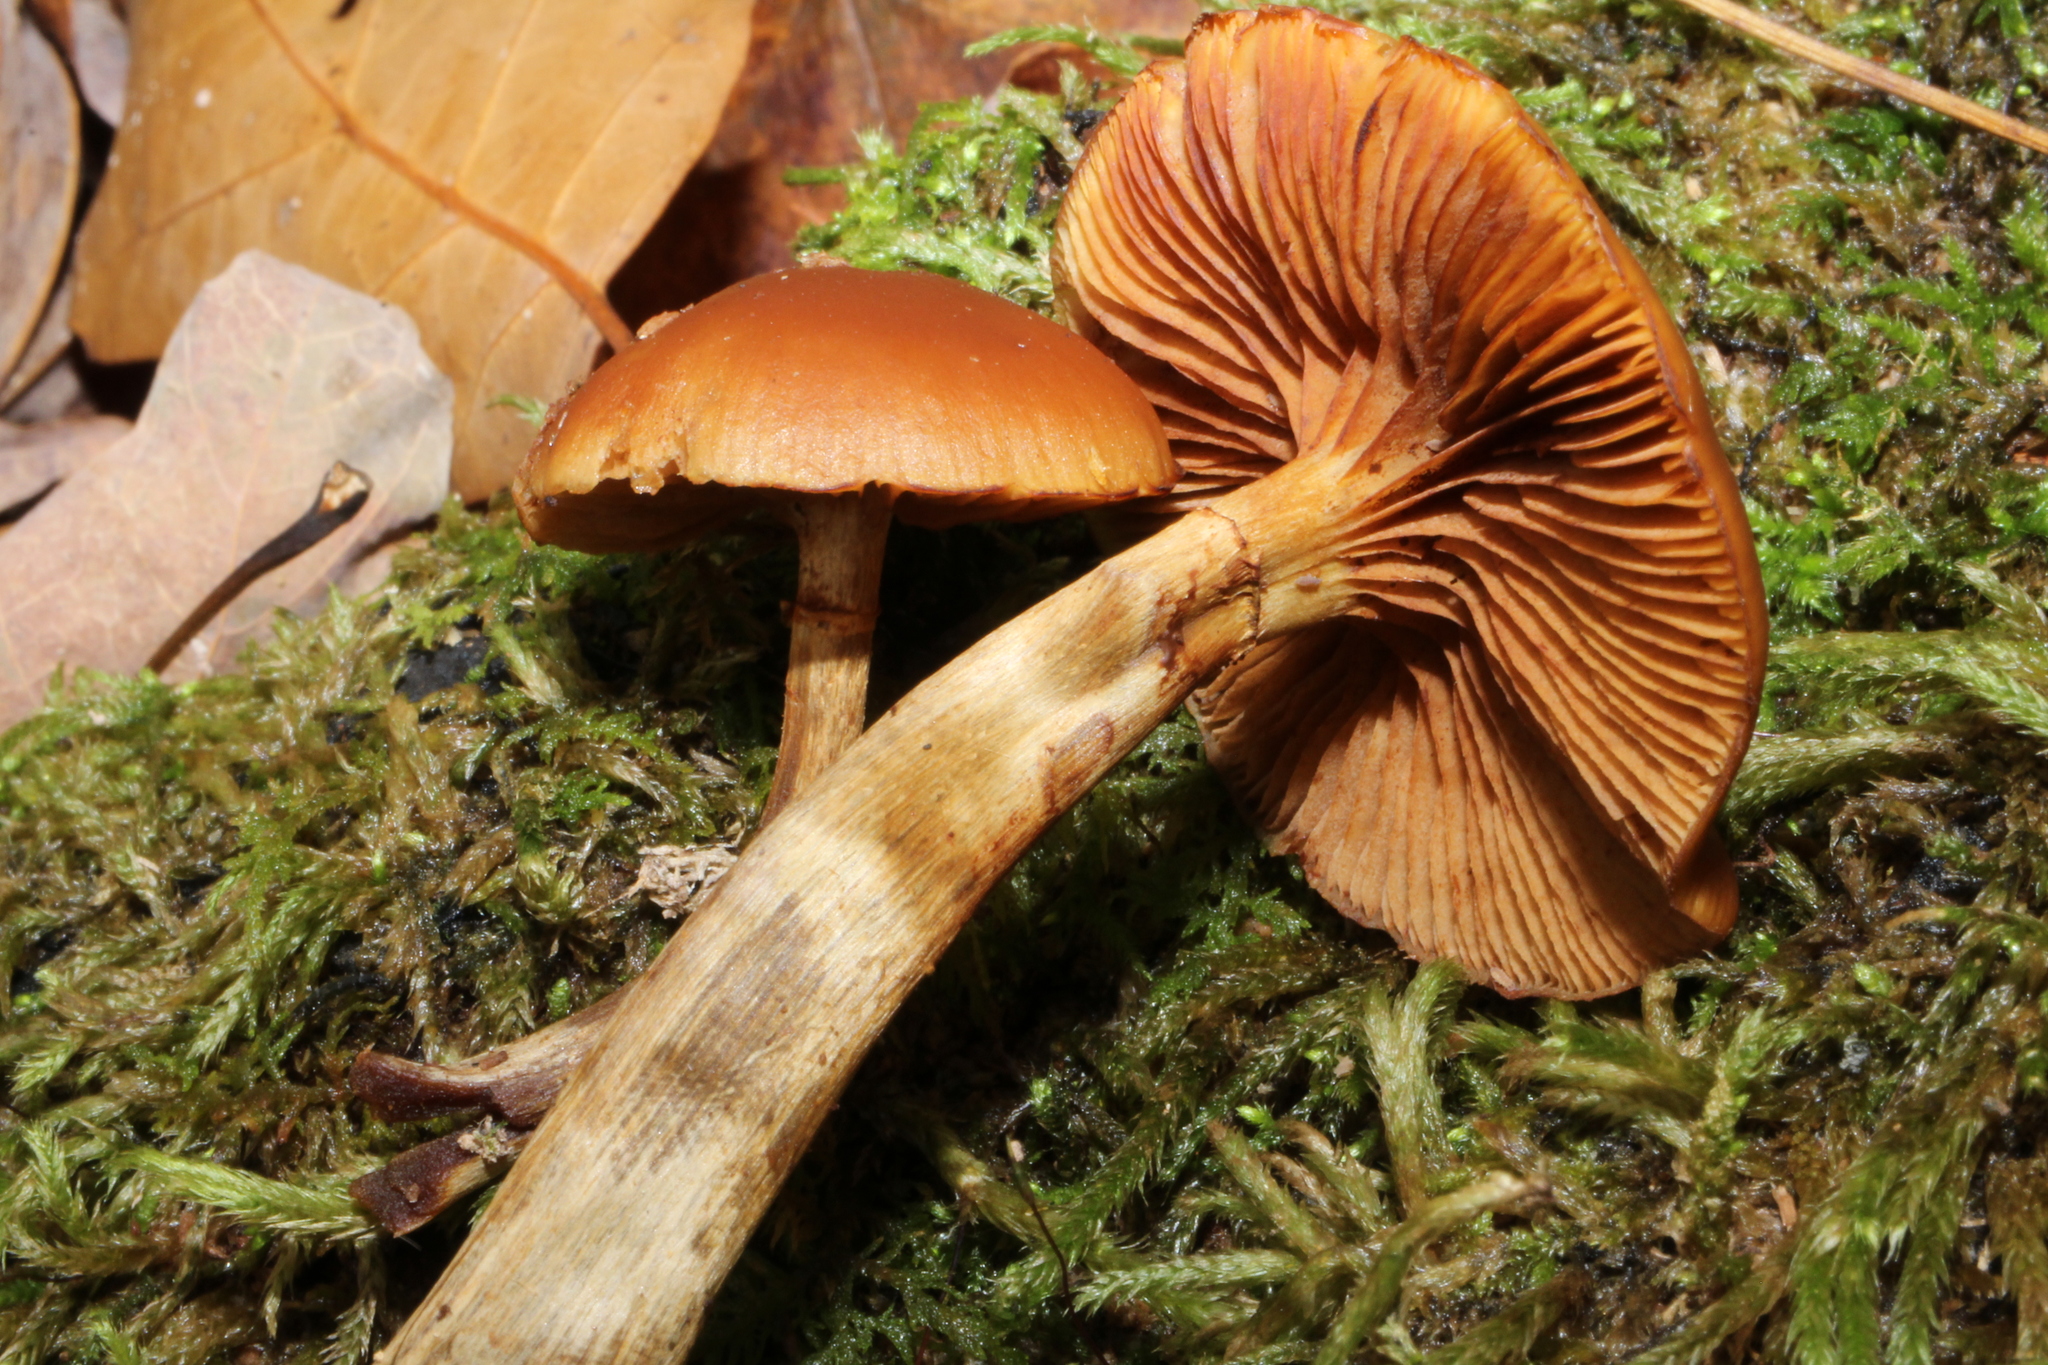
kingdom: Fungi
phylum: Basidiomycota
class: Agaricomycetes
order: Agaricales
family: Hymenogastraceae
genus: Galerina
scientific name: Galerina marginata
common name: Funeral bell
